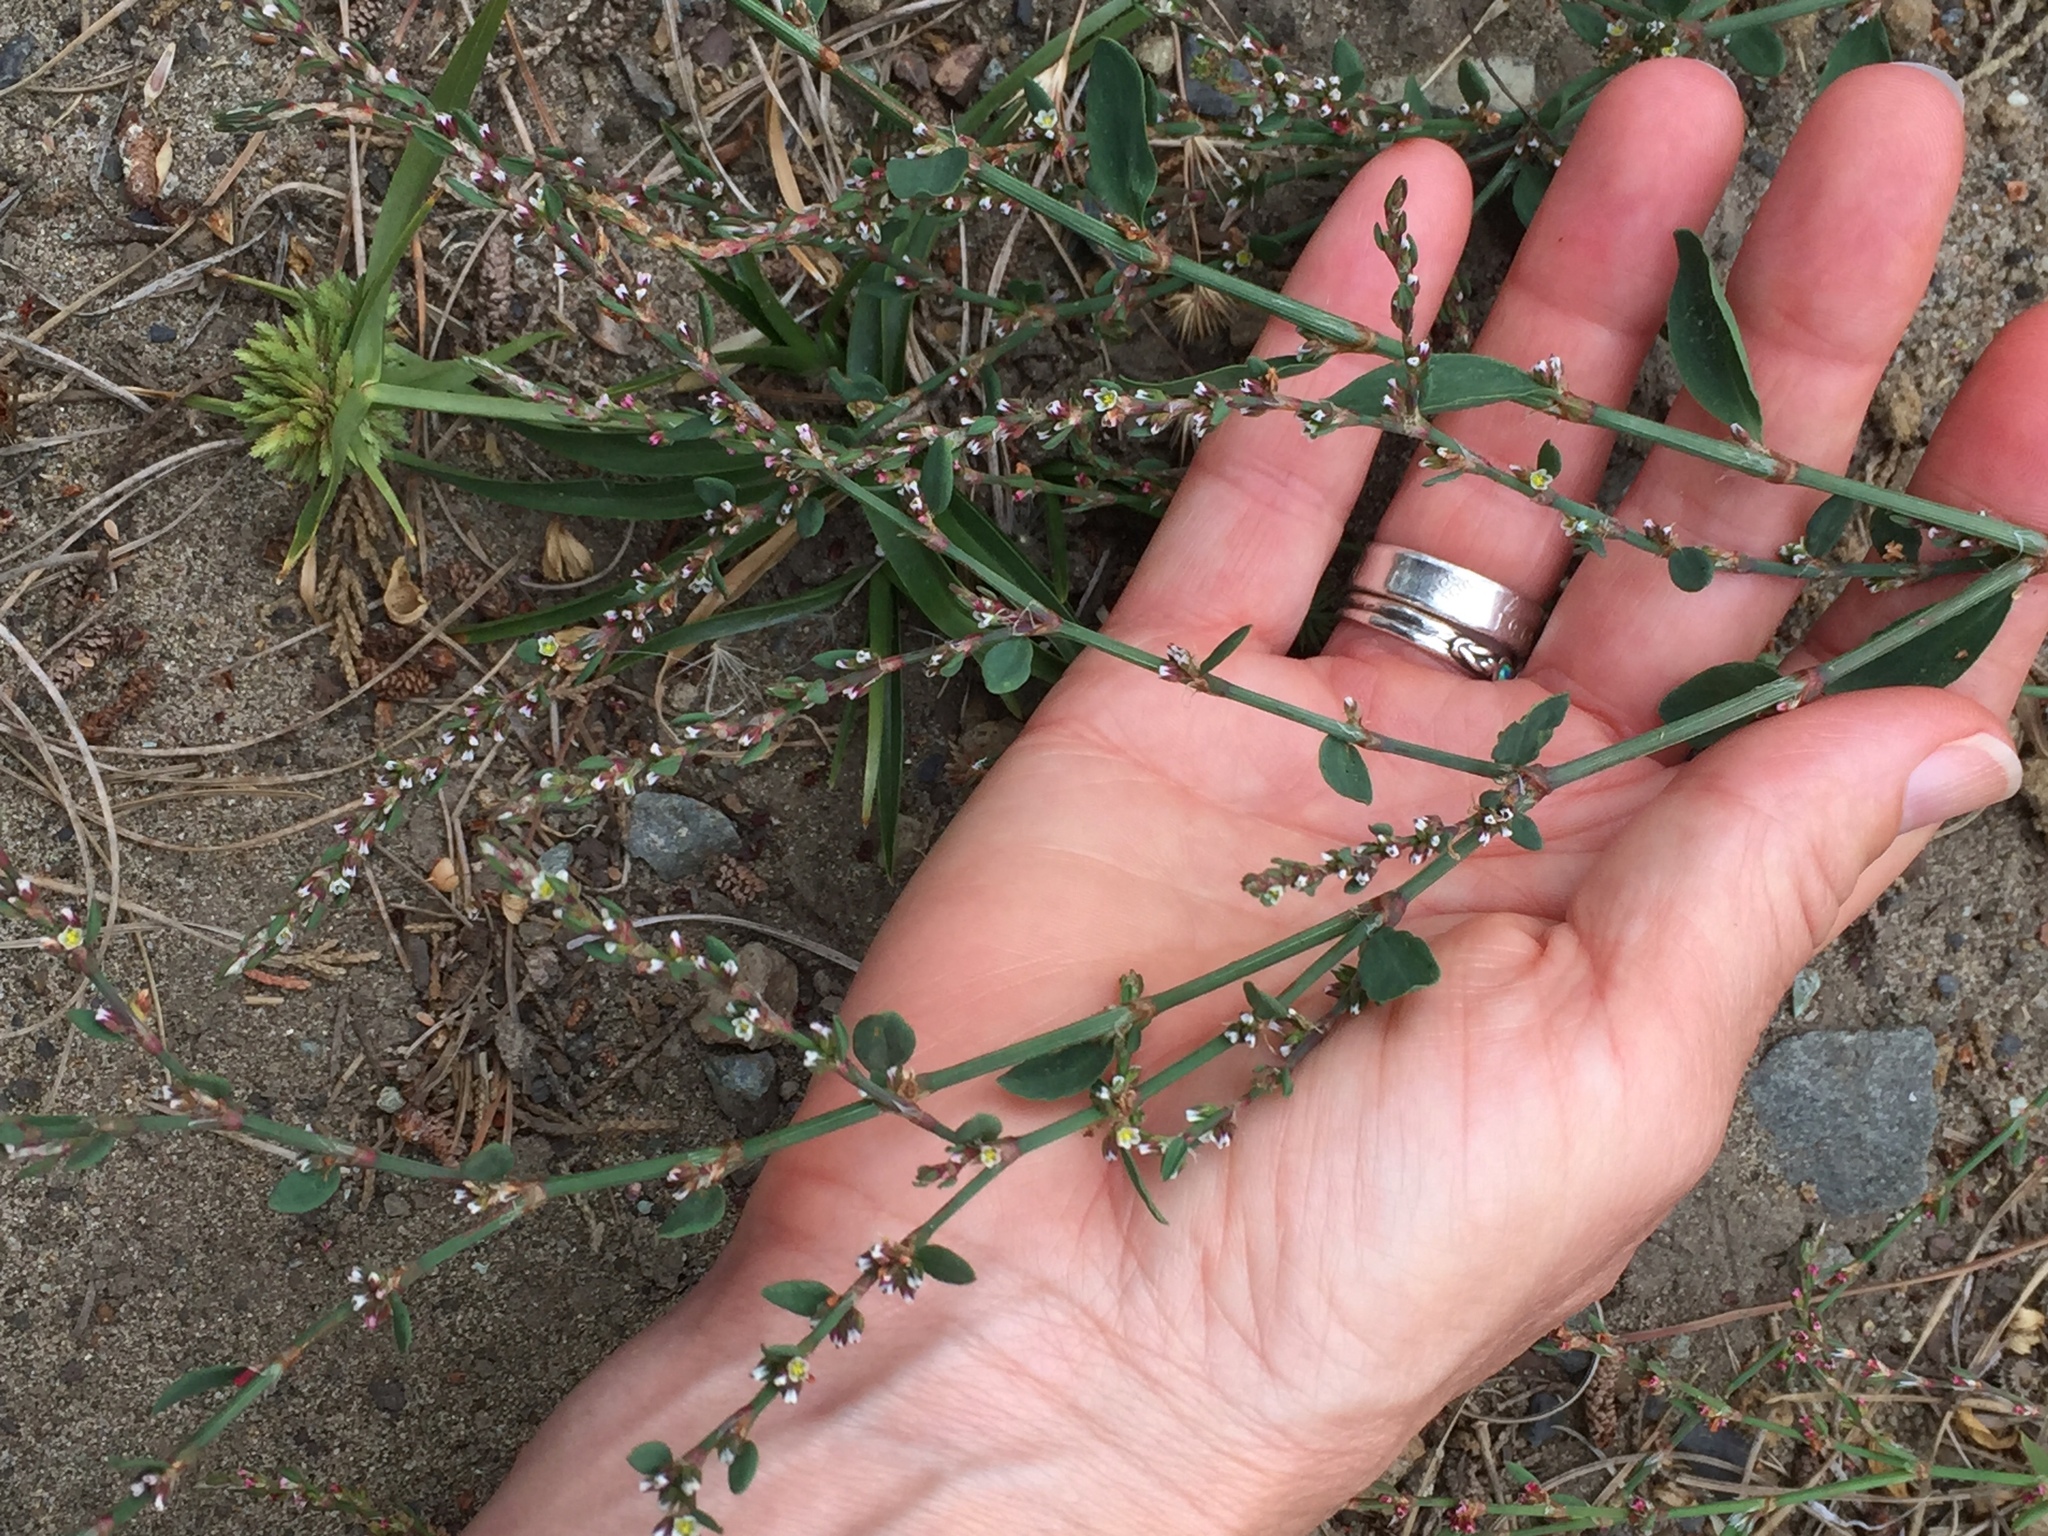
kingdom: Plantae
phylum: Tracheophyta
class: Magnoliopsida
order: Caryophyllales
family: Polygonaceae
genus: Polygonum
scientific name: Polygonum aviculare
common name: Prostrate knotweed
